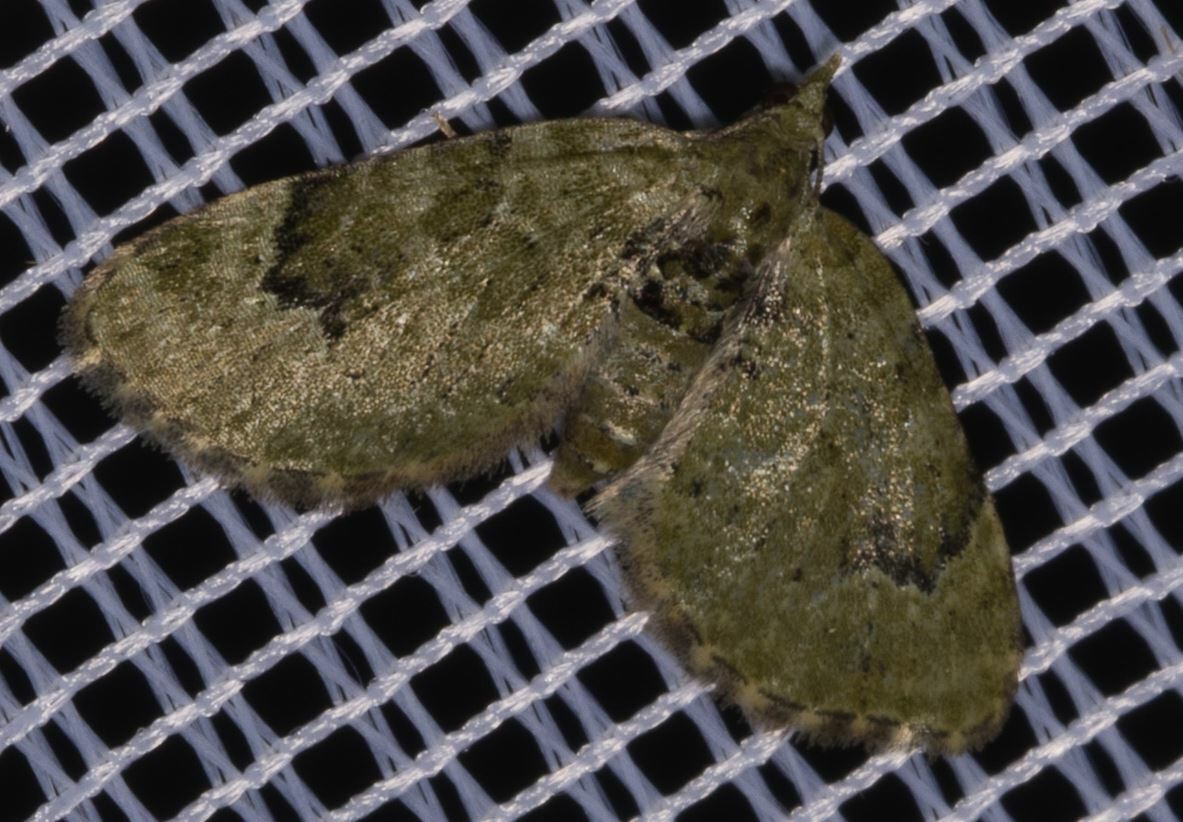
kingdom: Animalia
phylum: Arthropoda
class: Insecta
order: Lepidoptera
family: Geometridae
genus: Chloroclystis
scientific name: Chloroclystis v-ata
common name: V-pug
